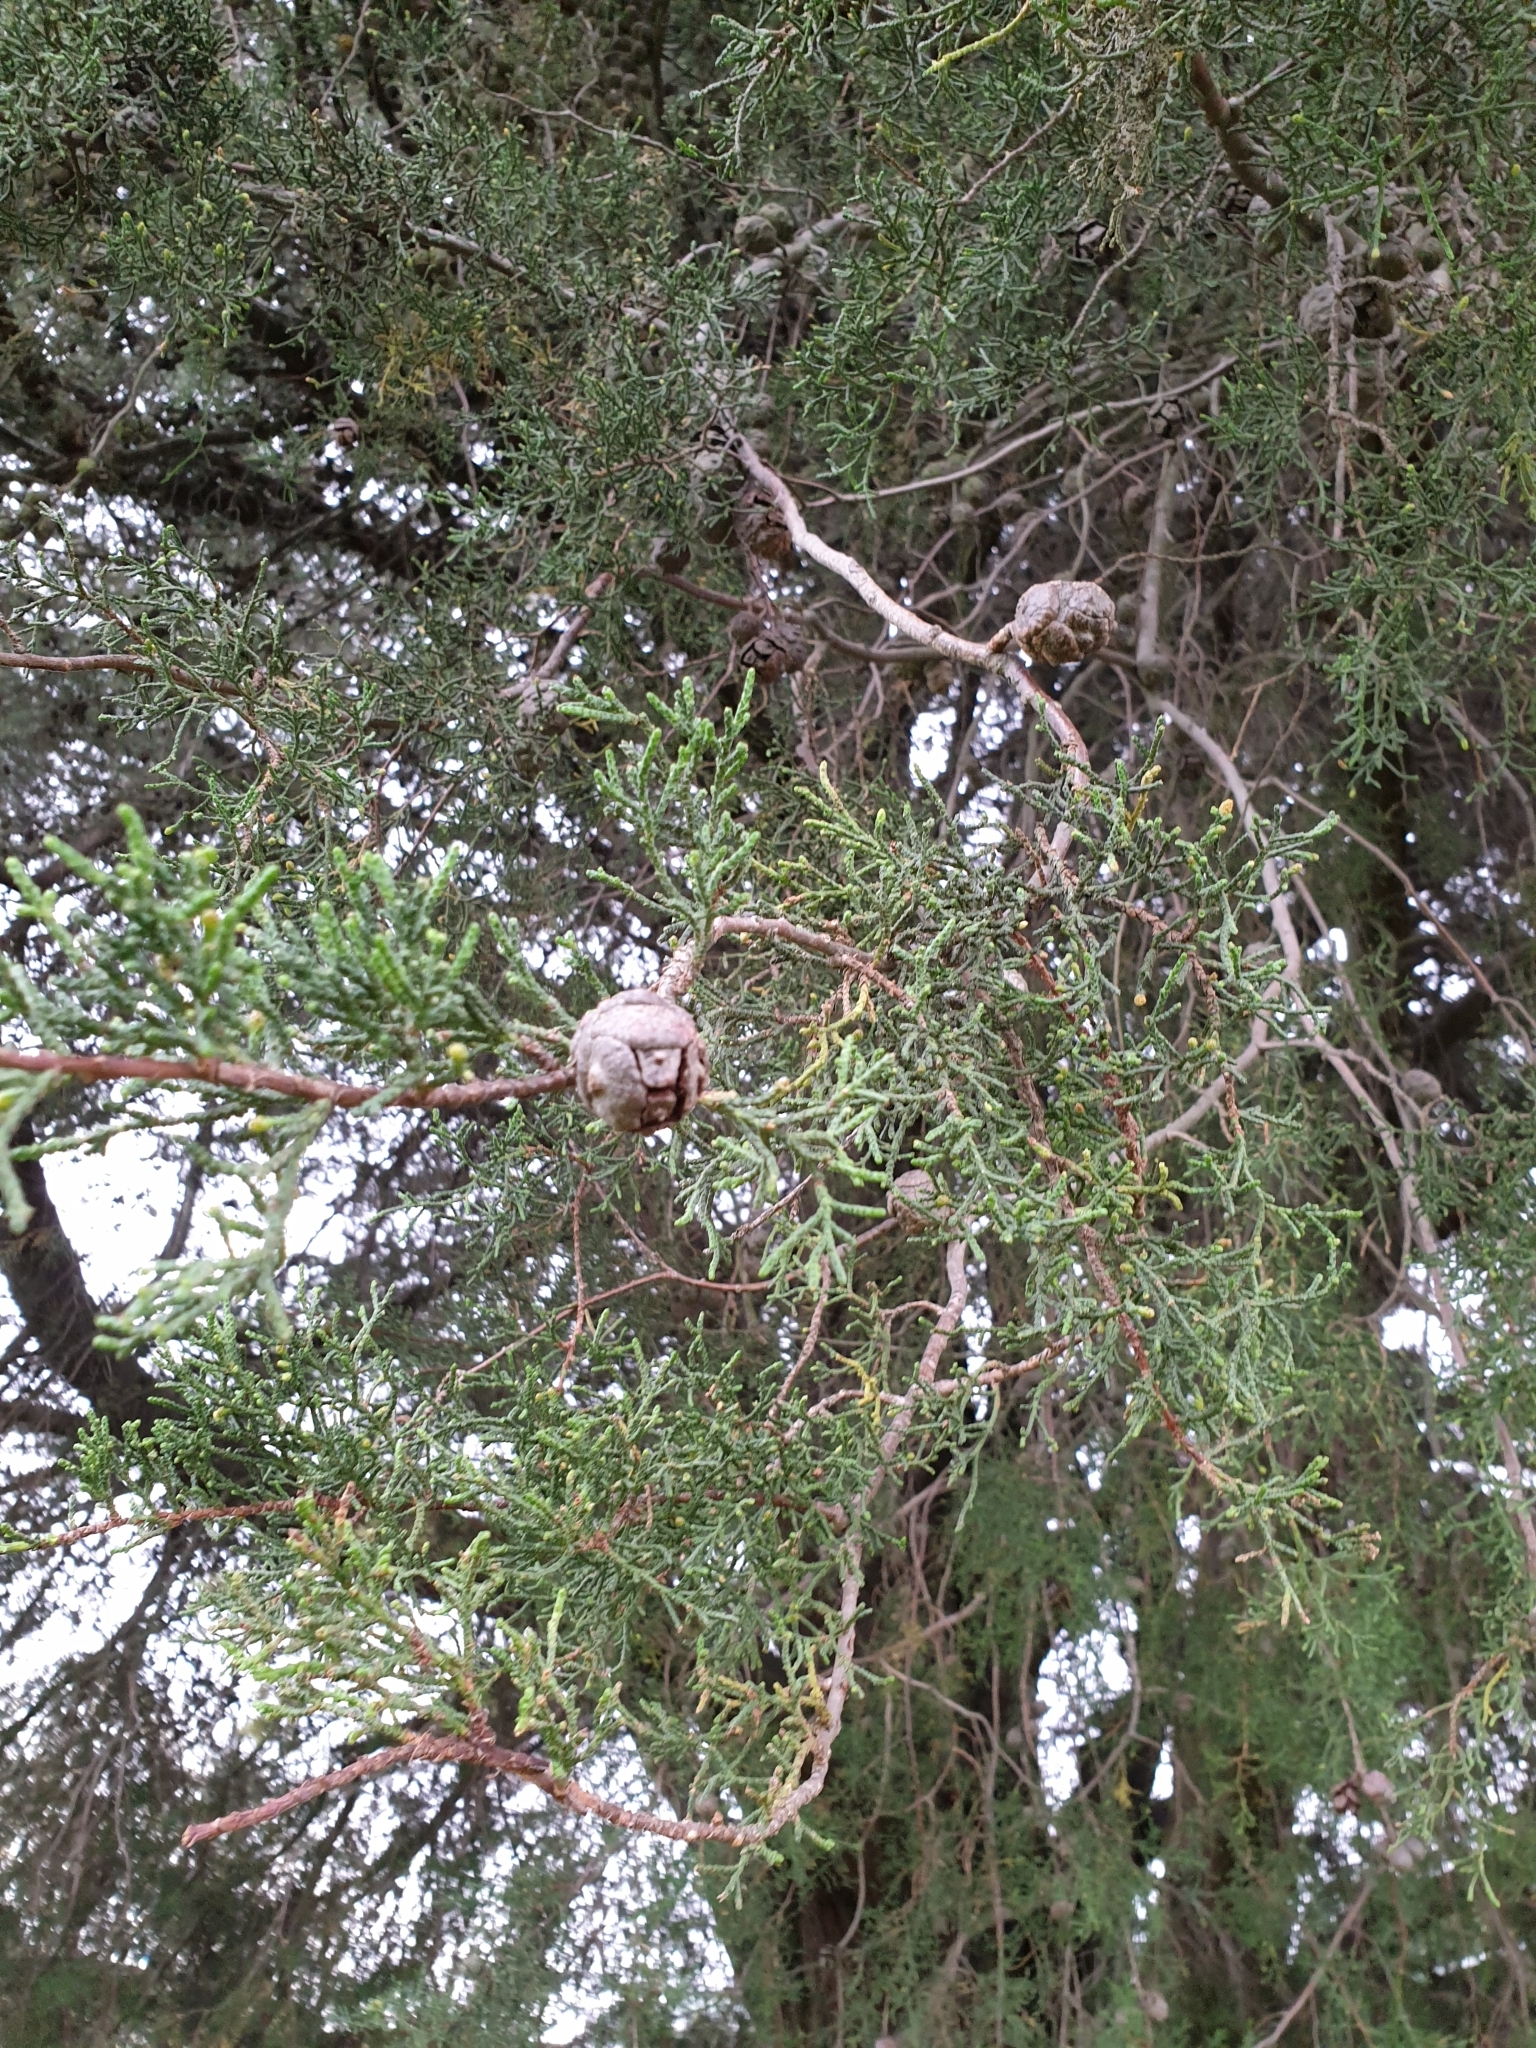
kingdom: Plantae
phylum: Tracheophyta
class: Pinopsida
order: Pinales
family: Cupressaceae
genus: Cupressus
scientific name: Cupressus macrocarpa
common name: Monterey cypress
